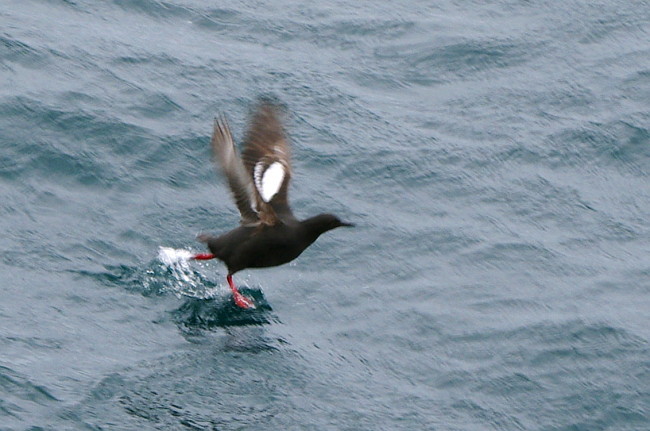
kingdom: Animalia
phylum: Chordata
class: Aves
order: Charadriiformes
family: Alcidae
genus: Cepphus
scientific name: Cepphus columba
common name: Pigeon guillemot
